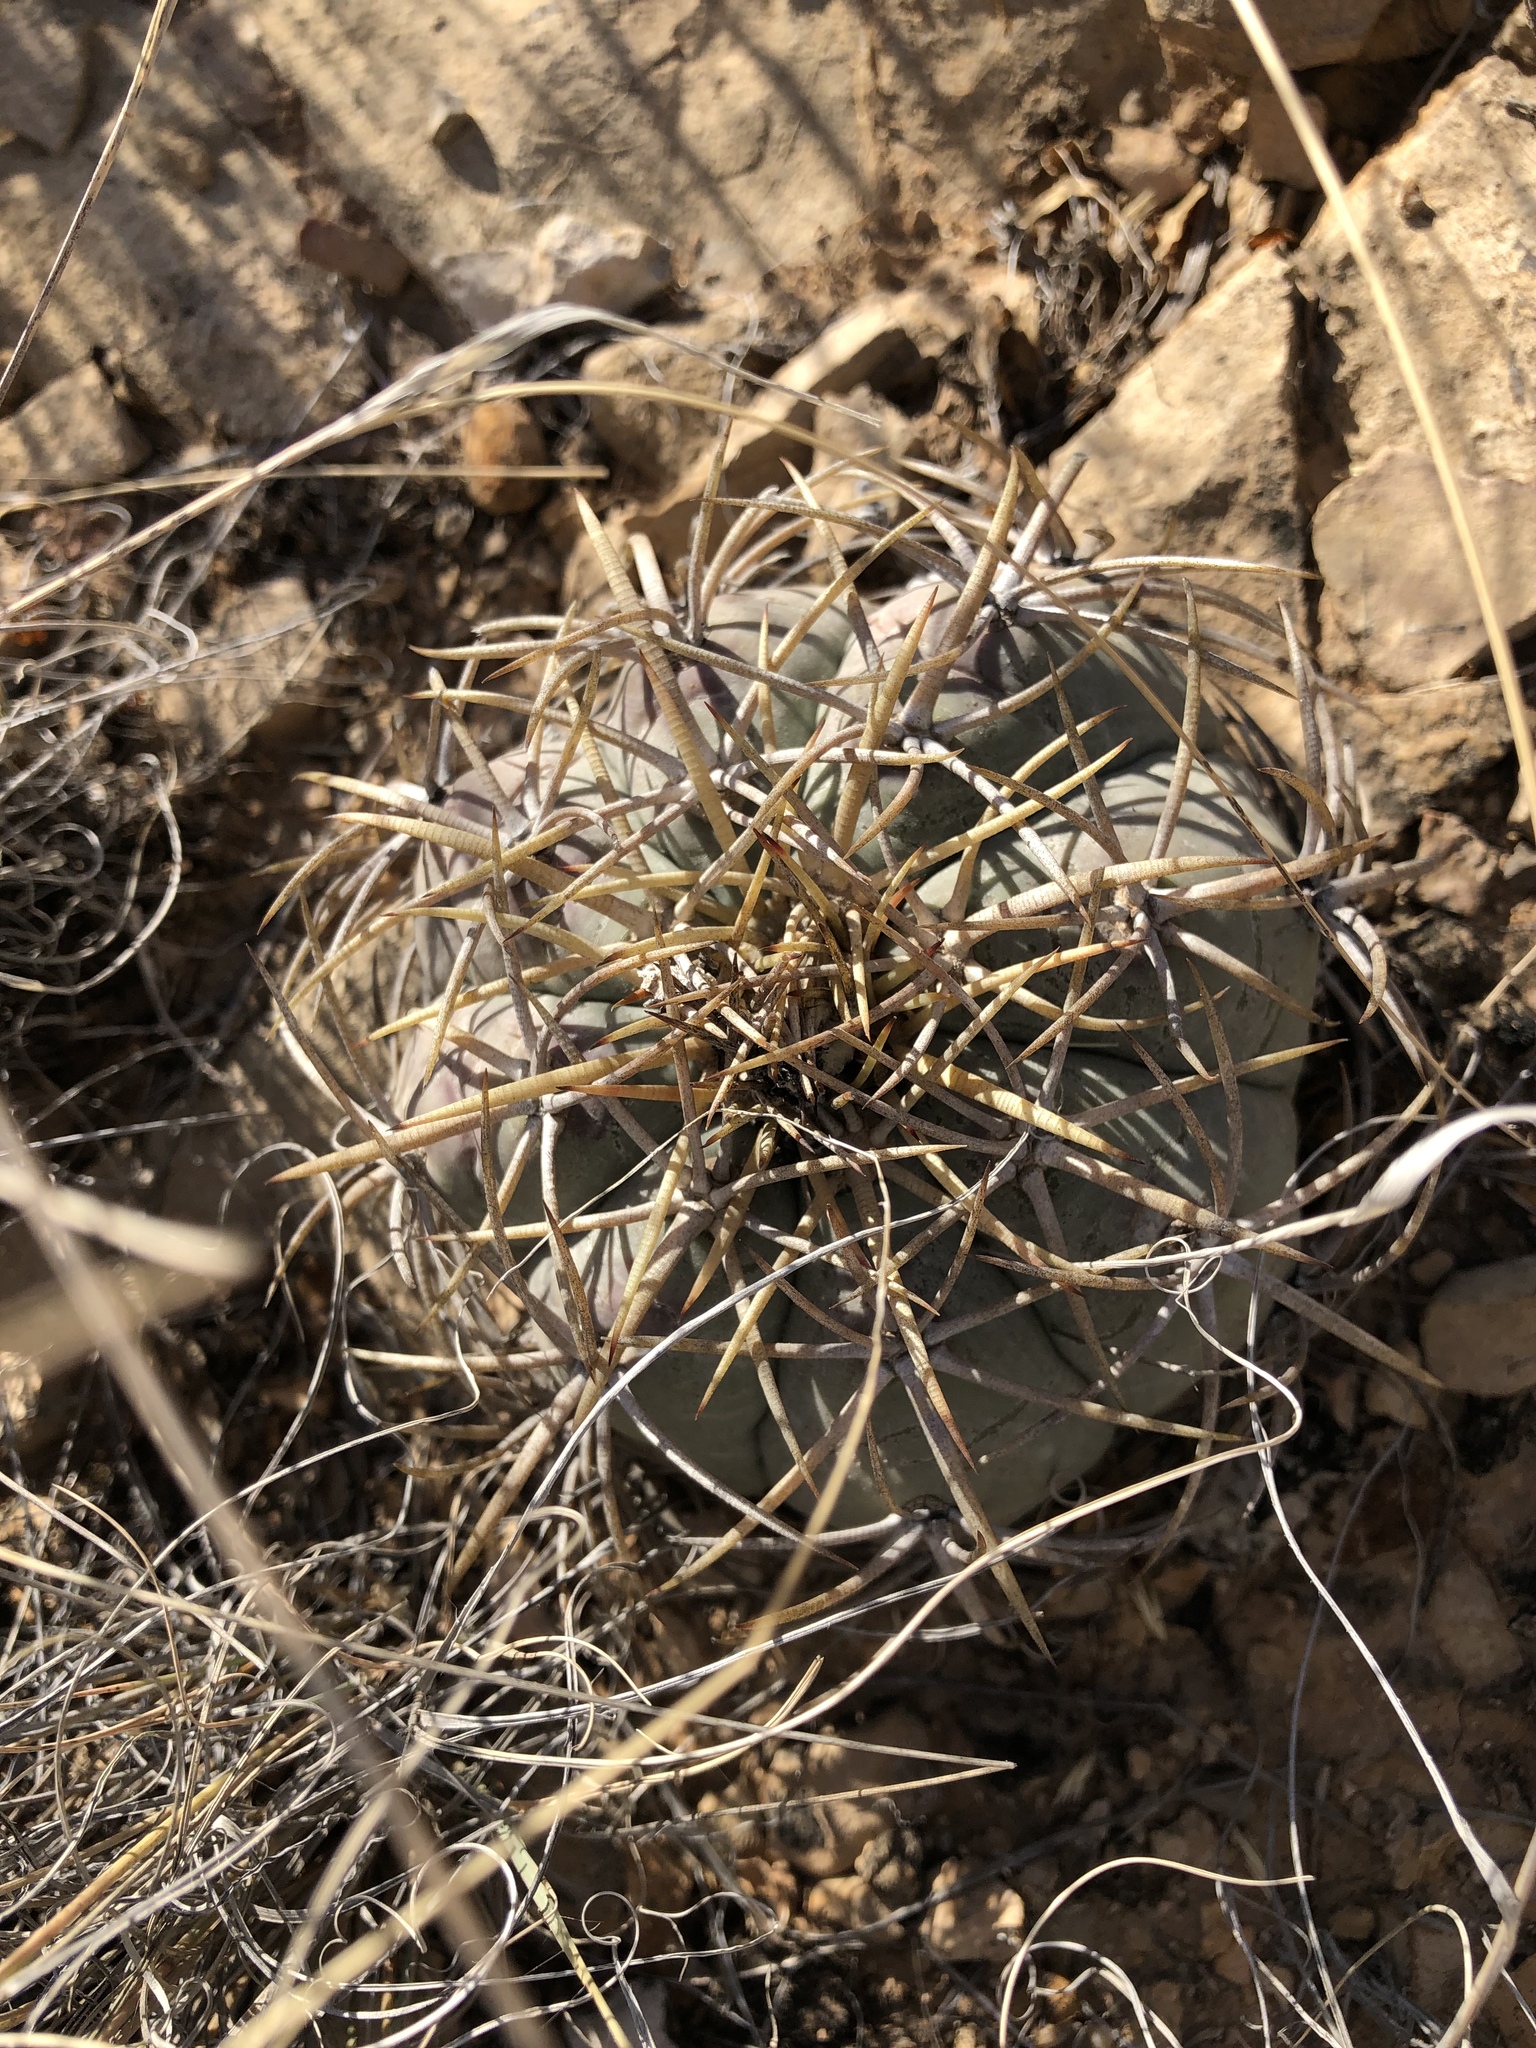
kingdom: Plantae
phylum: Tracheophyta
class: Magnoliopsida
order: Caryophyllales
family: Cactaceae
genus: Echinocactus
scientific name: Echinocactus horizonthalonius
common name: Devilshead
